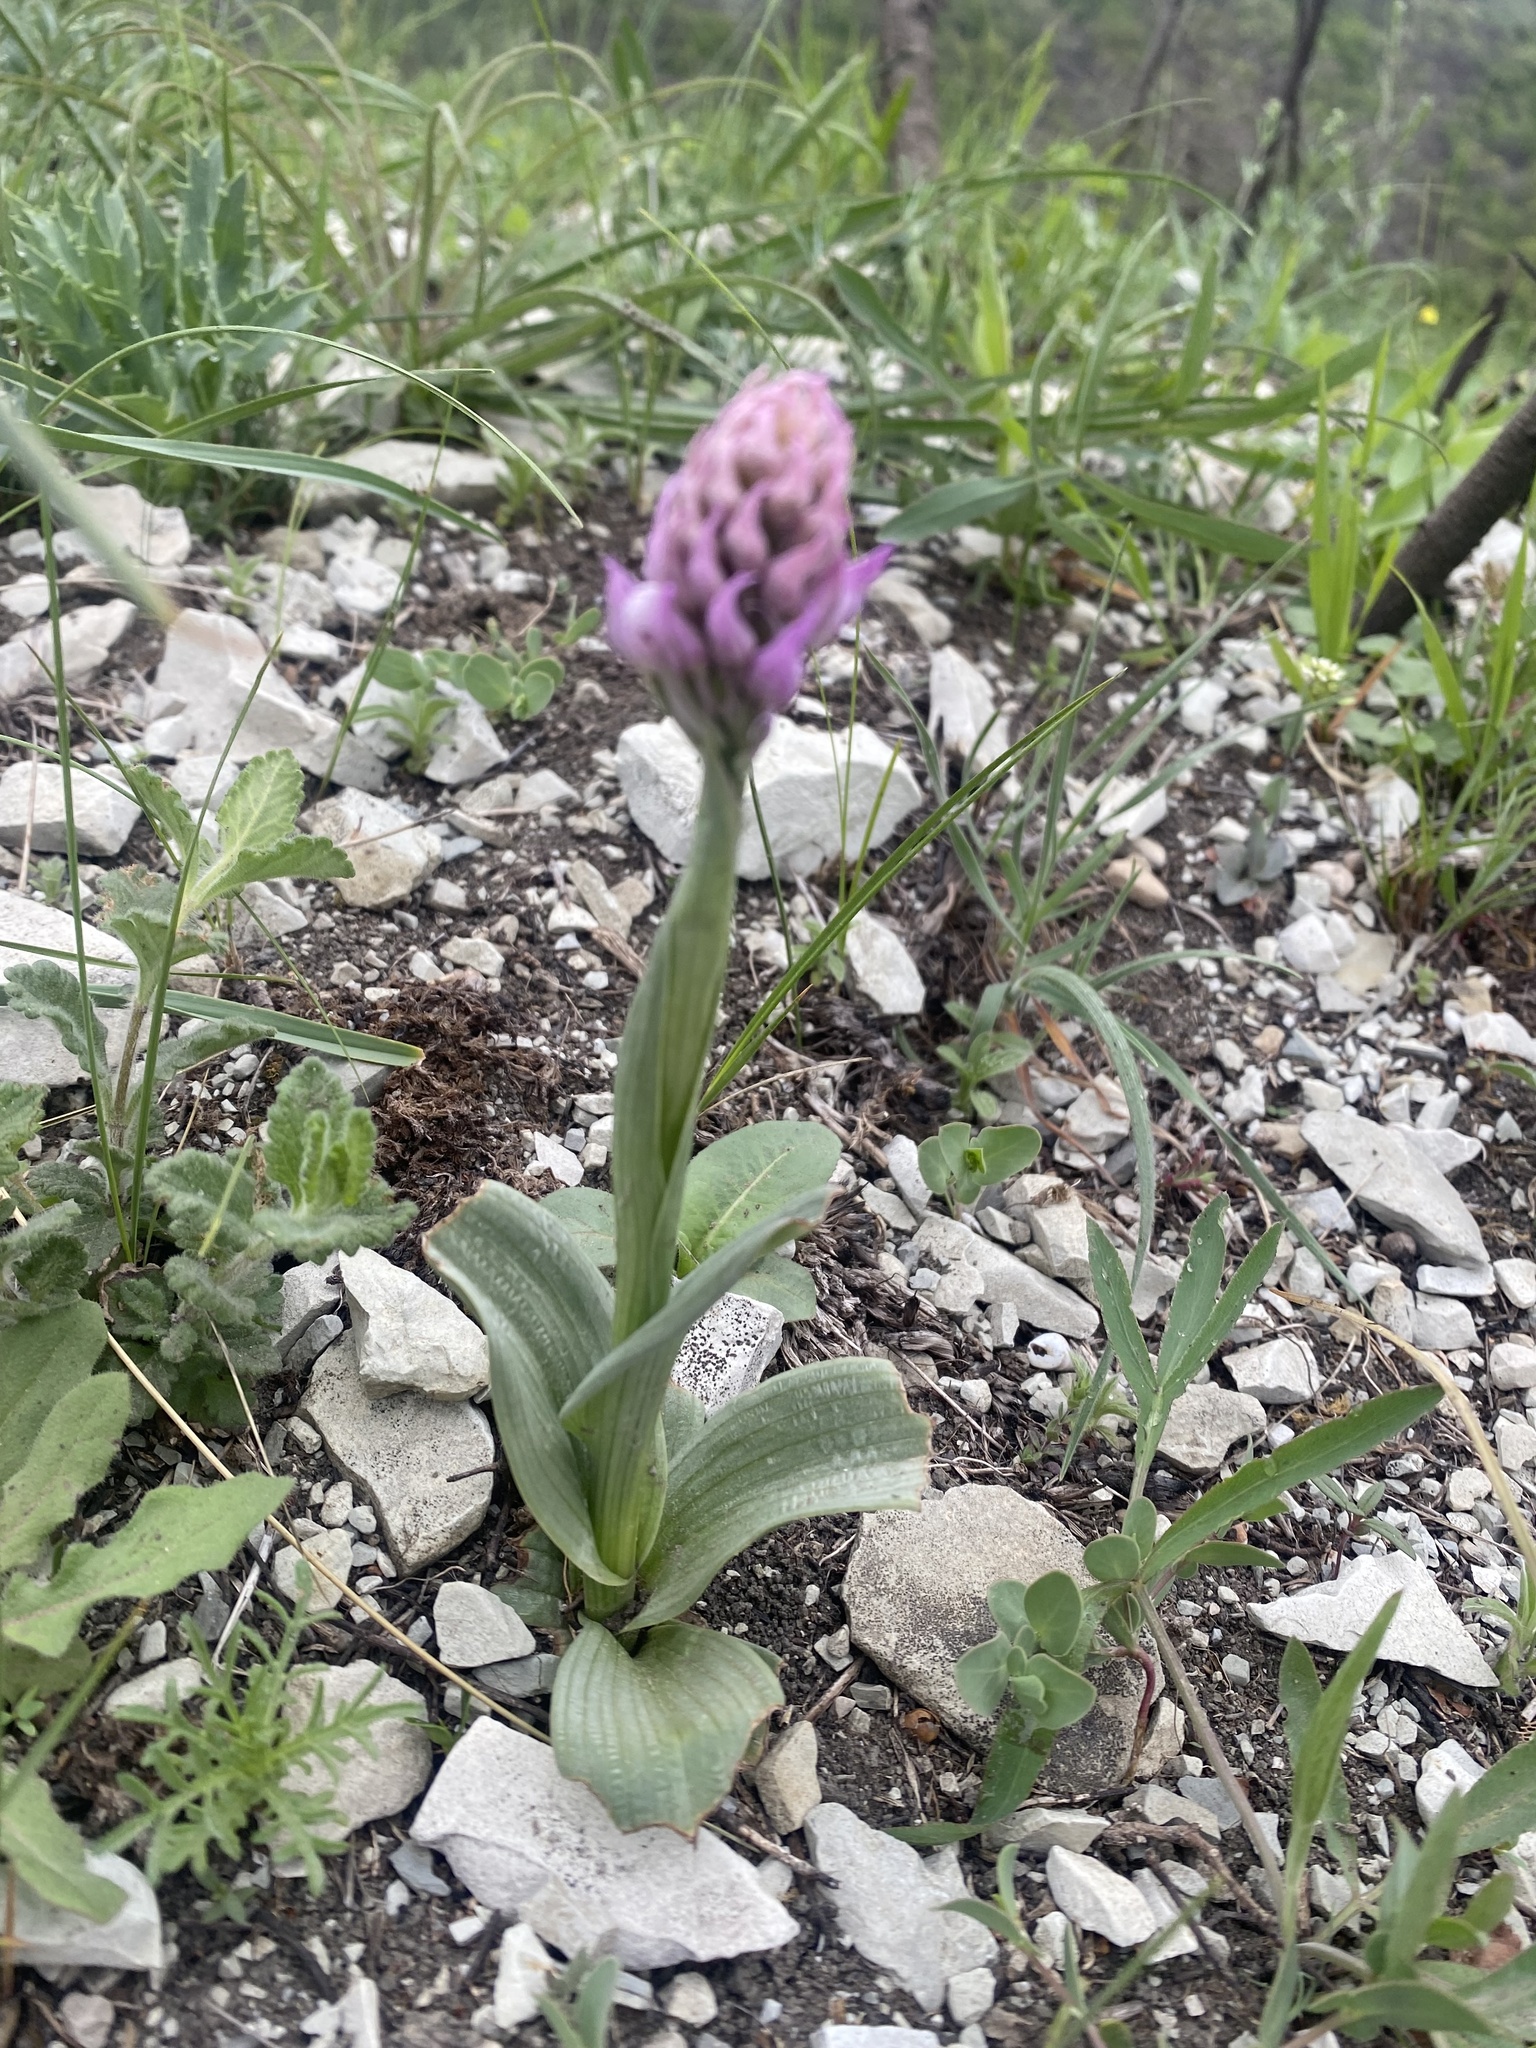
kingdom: Plantae
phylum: Tracheophyta
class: Liliopsida
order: Asparagales
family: Orchidaceae
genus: Neotinea
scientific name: Neotinea tridentata
